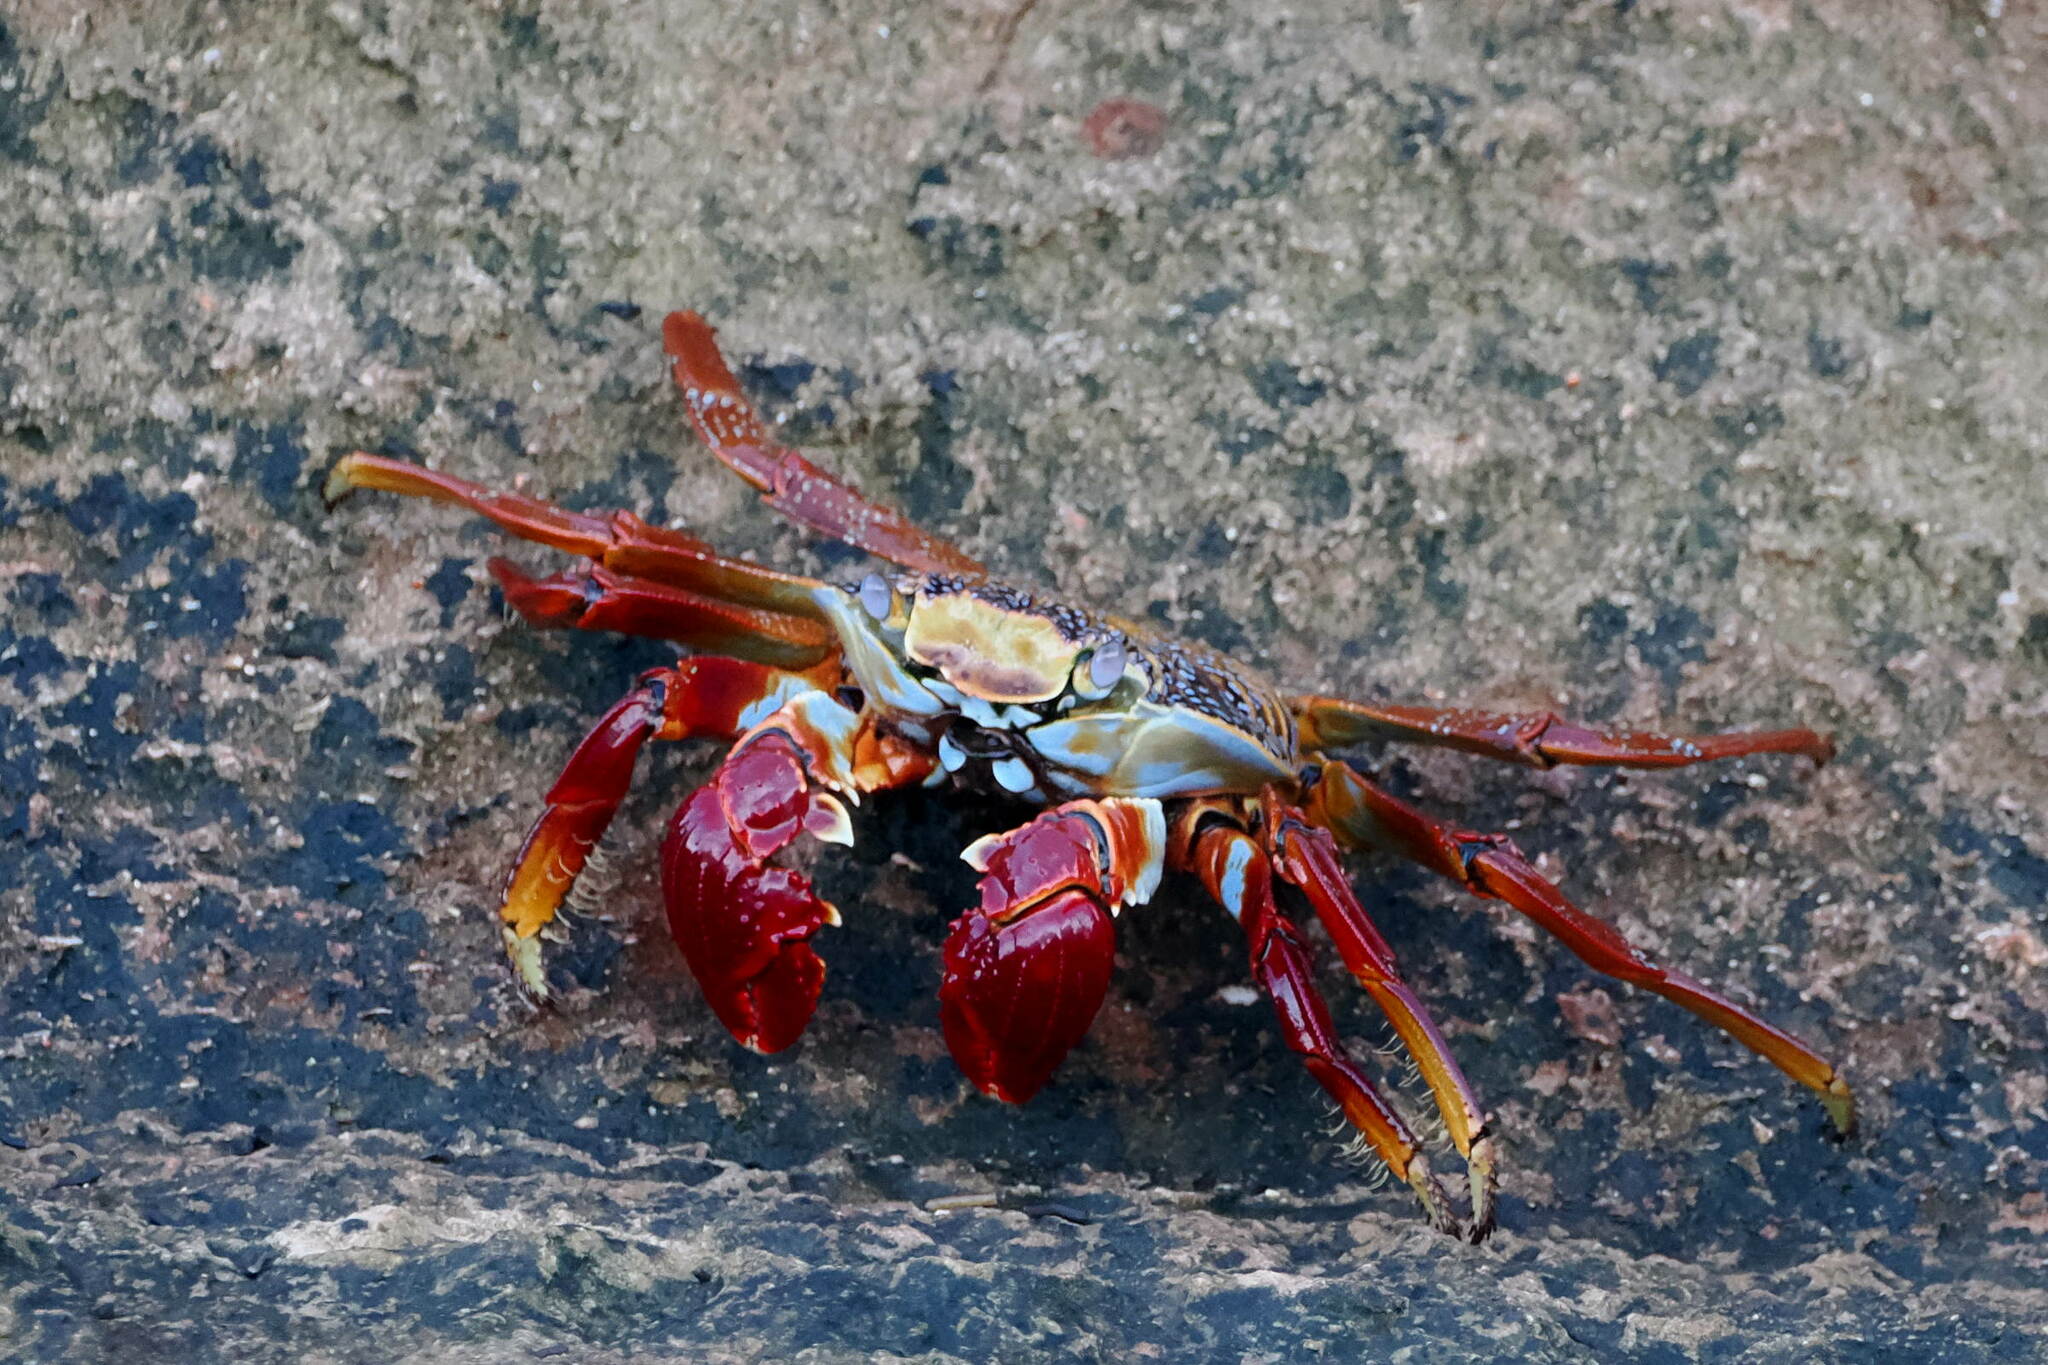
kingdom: Animalia
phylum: Arthropoda
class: Malacostraca
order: Decapoda
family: Grapsidae
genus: Grapsus
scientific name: Grapsus grapsus
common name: Sally lightfoot
